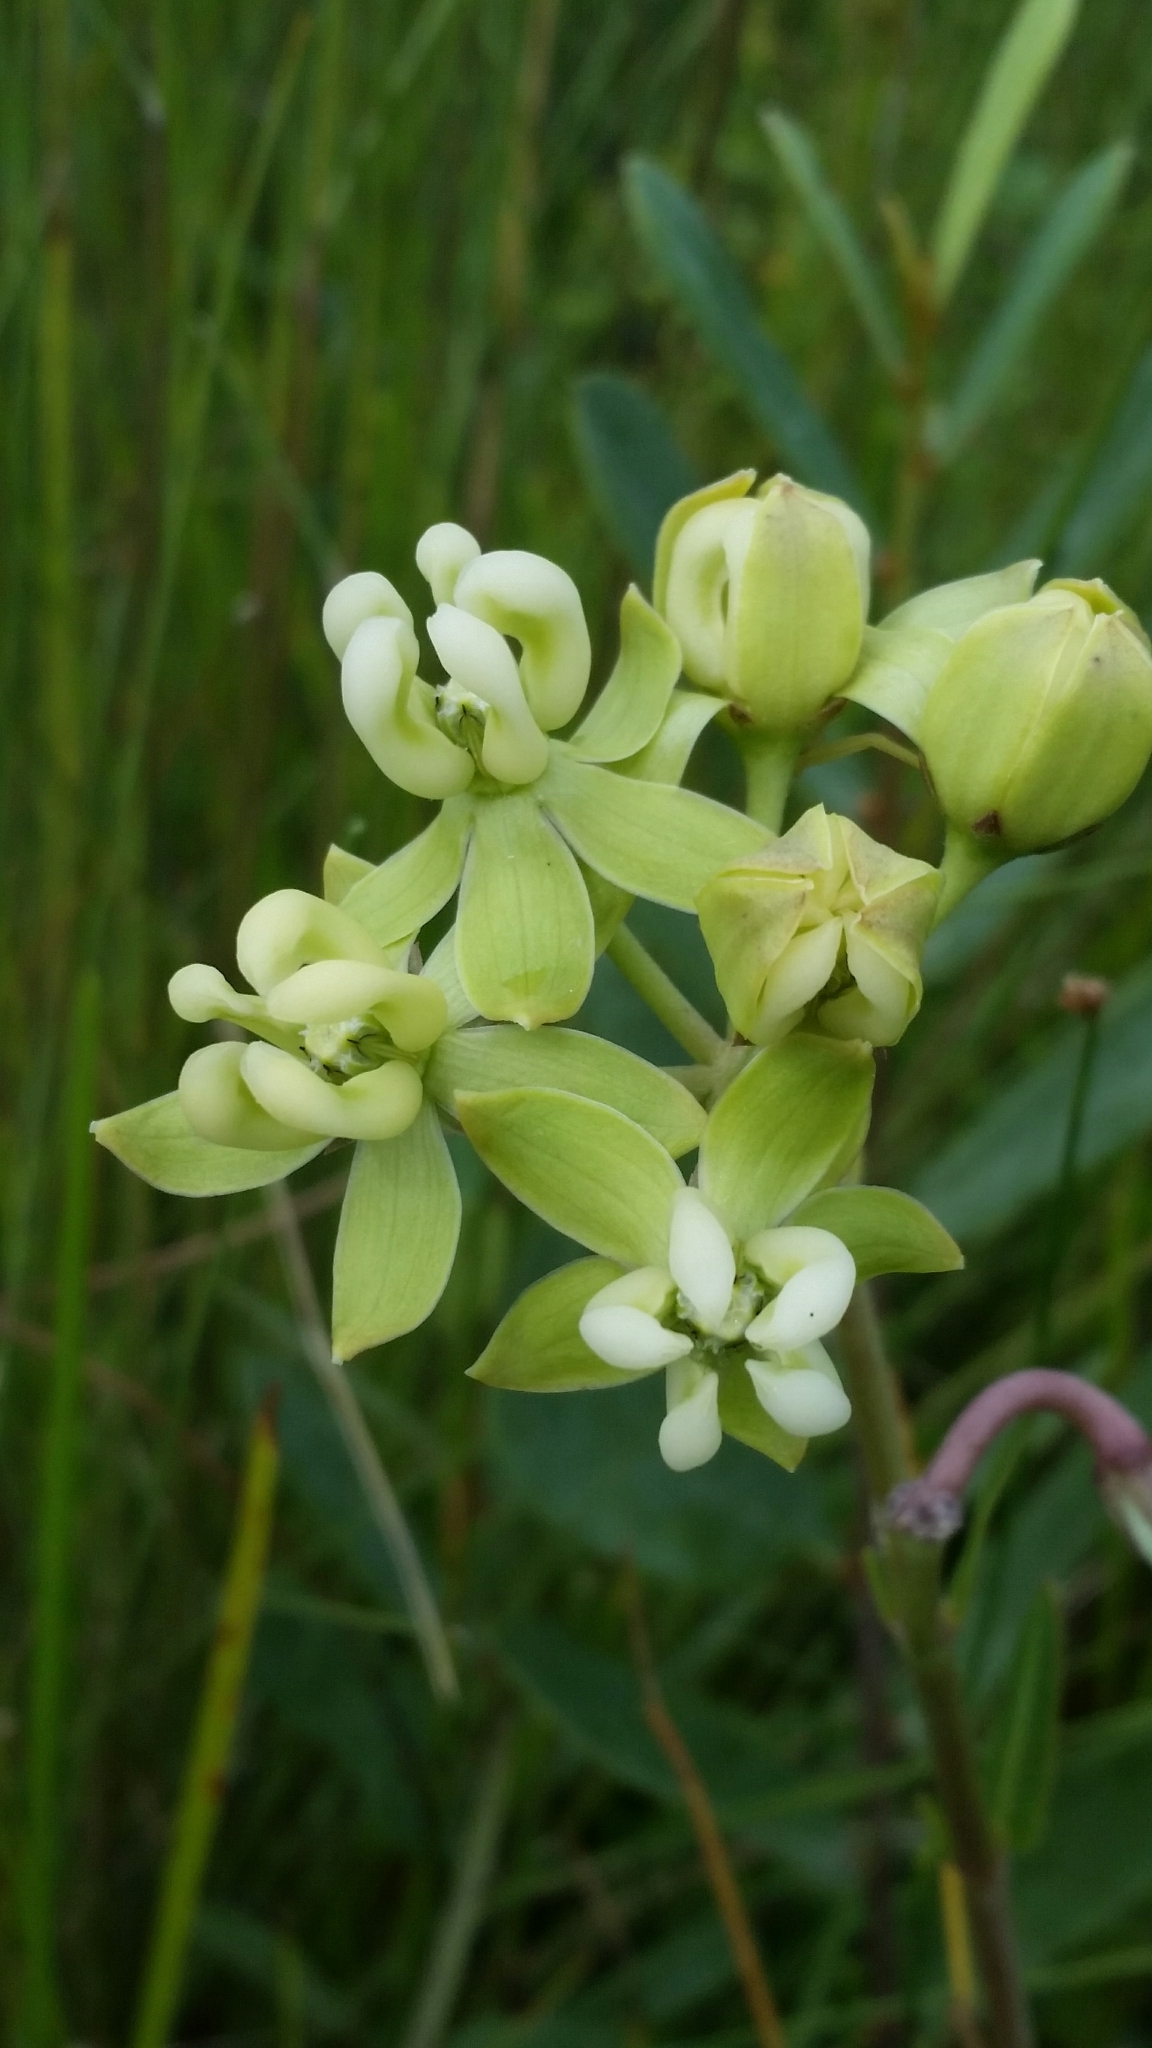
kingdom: Plantae
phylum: Tracheophyta
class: Magnoliopsida
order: Gentianales
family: Apocynaceae
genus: Asclepias
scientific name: Asclepias connivens
